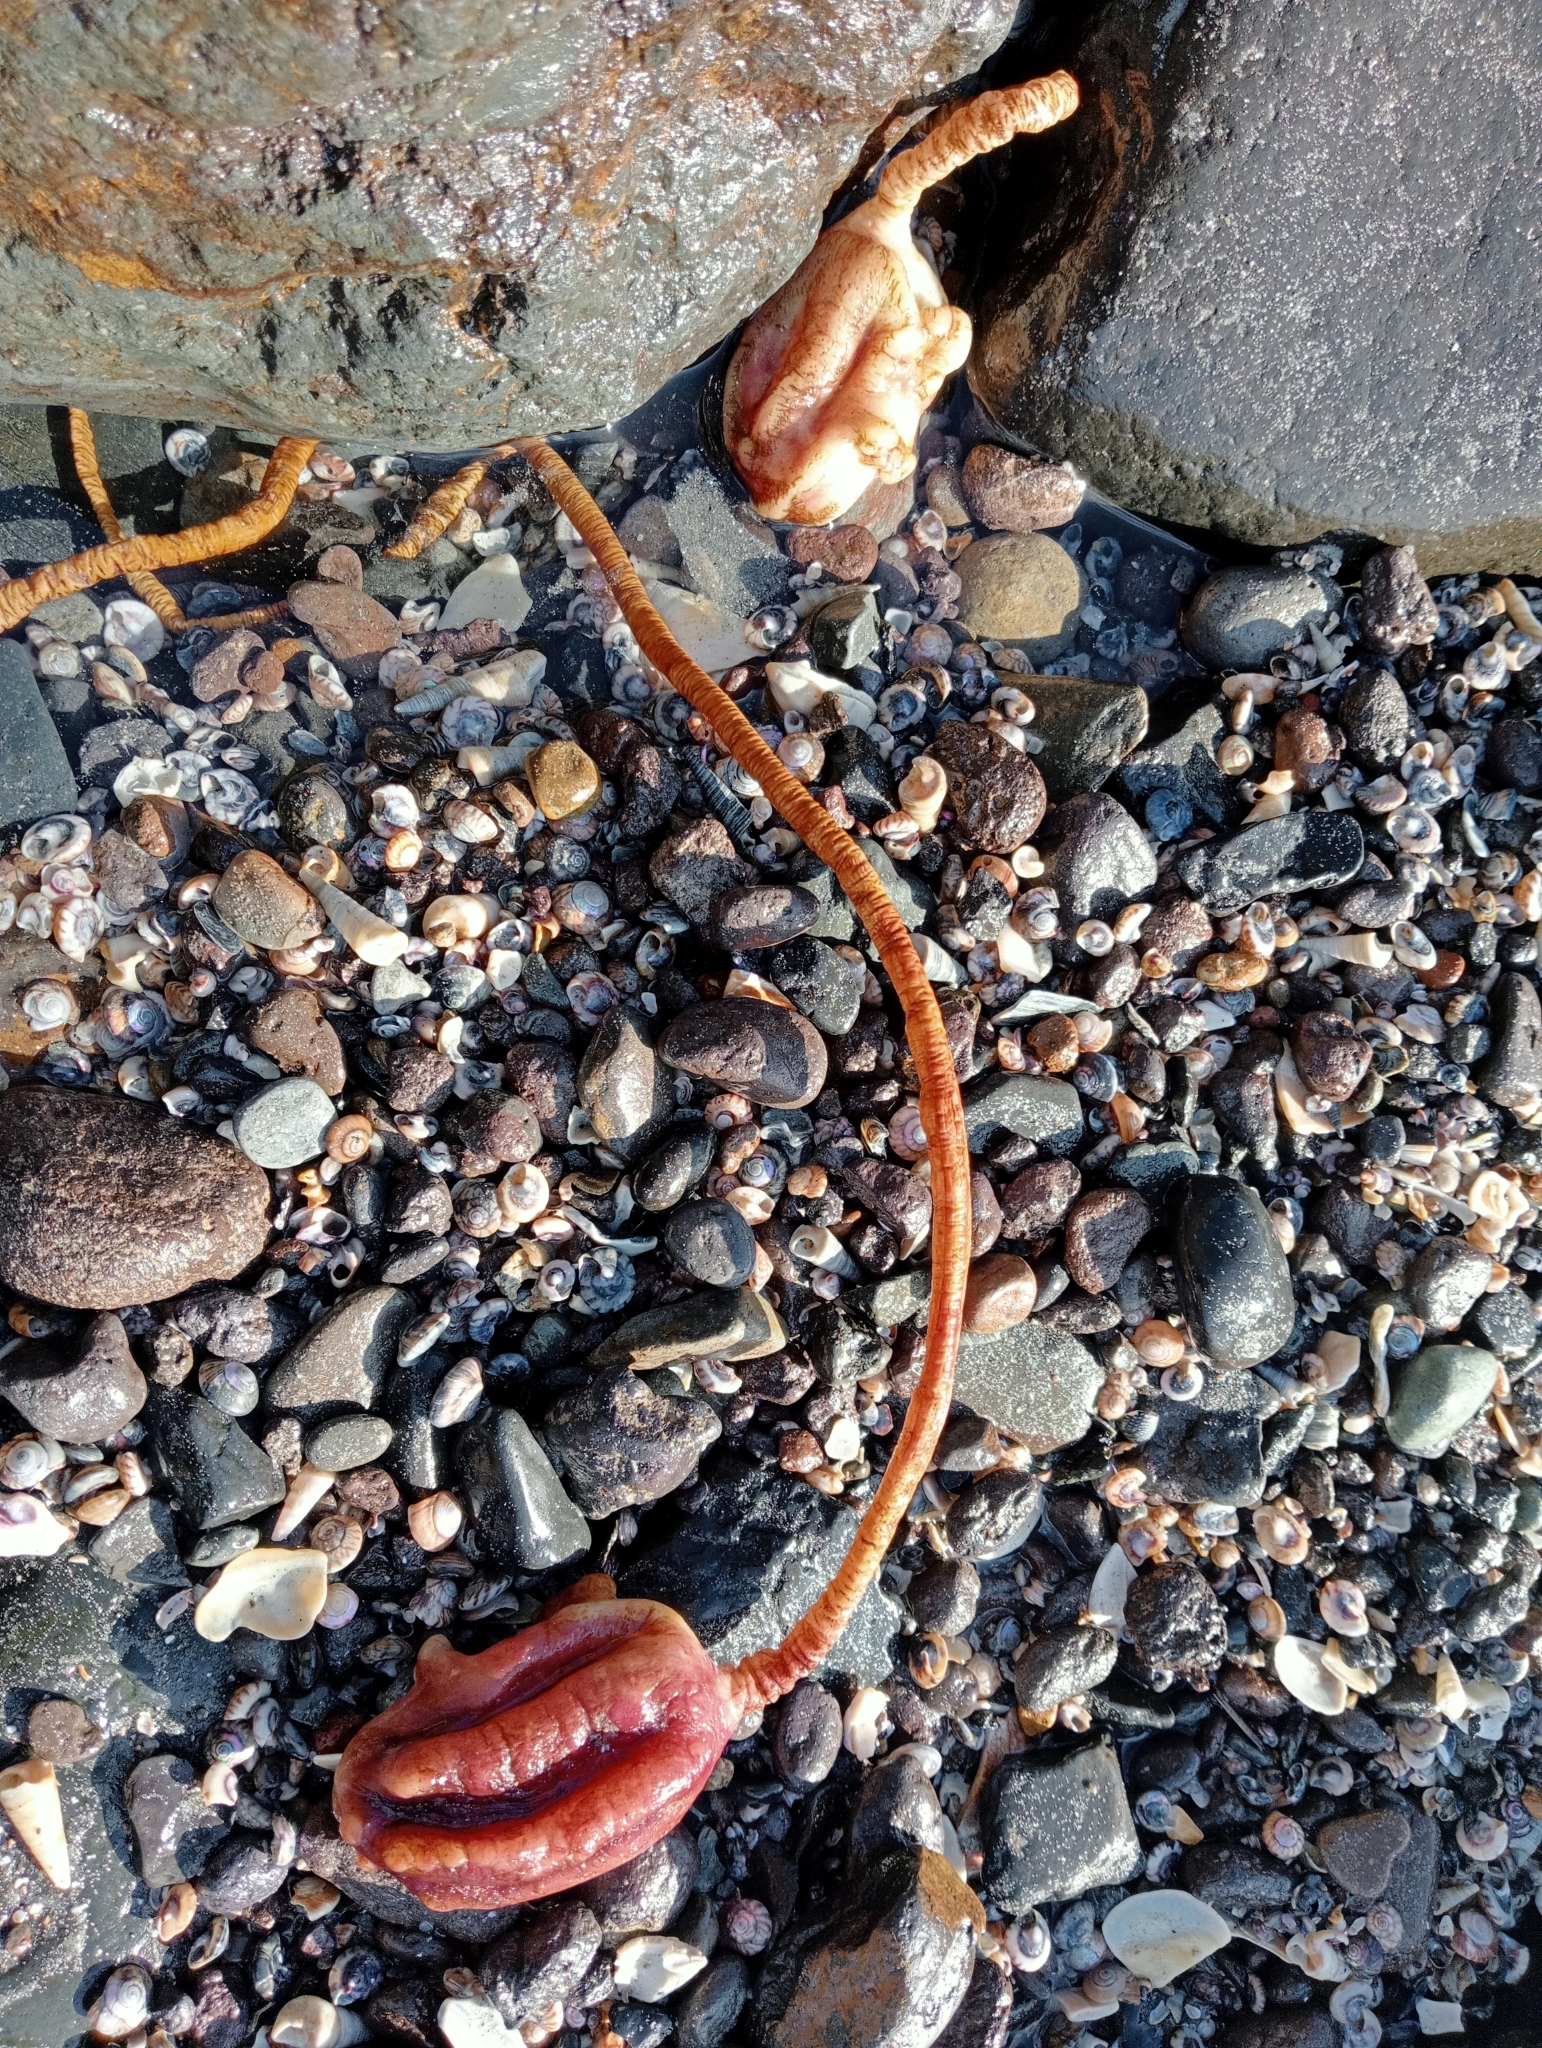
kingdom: Animalia
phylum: Chordata
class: Ascidiacea
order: Stolidobranchia
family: Pyuridae
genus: Pyura
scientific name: Pyura pachydermatina
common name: Sea tulip
